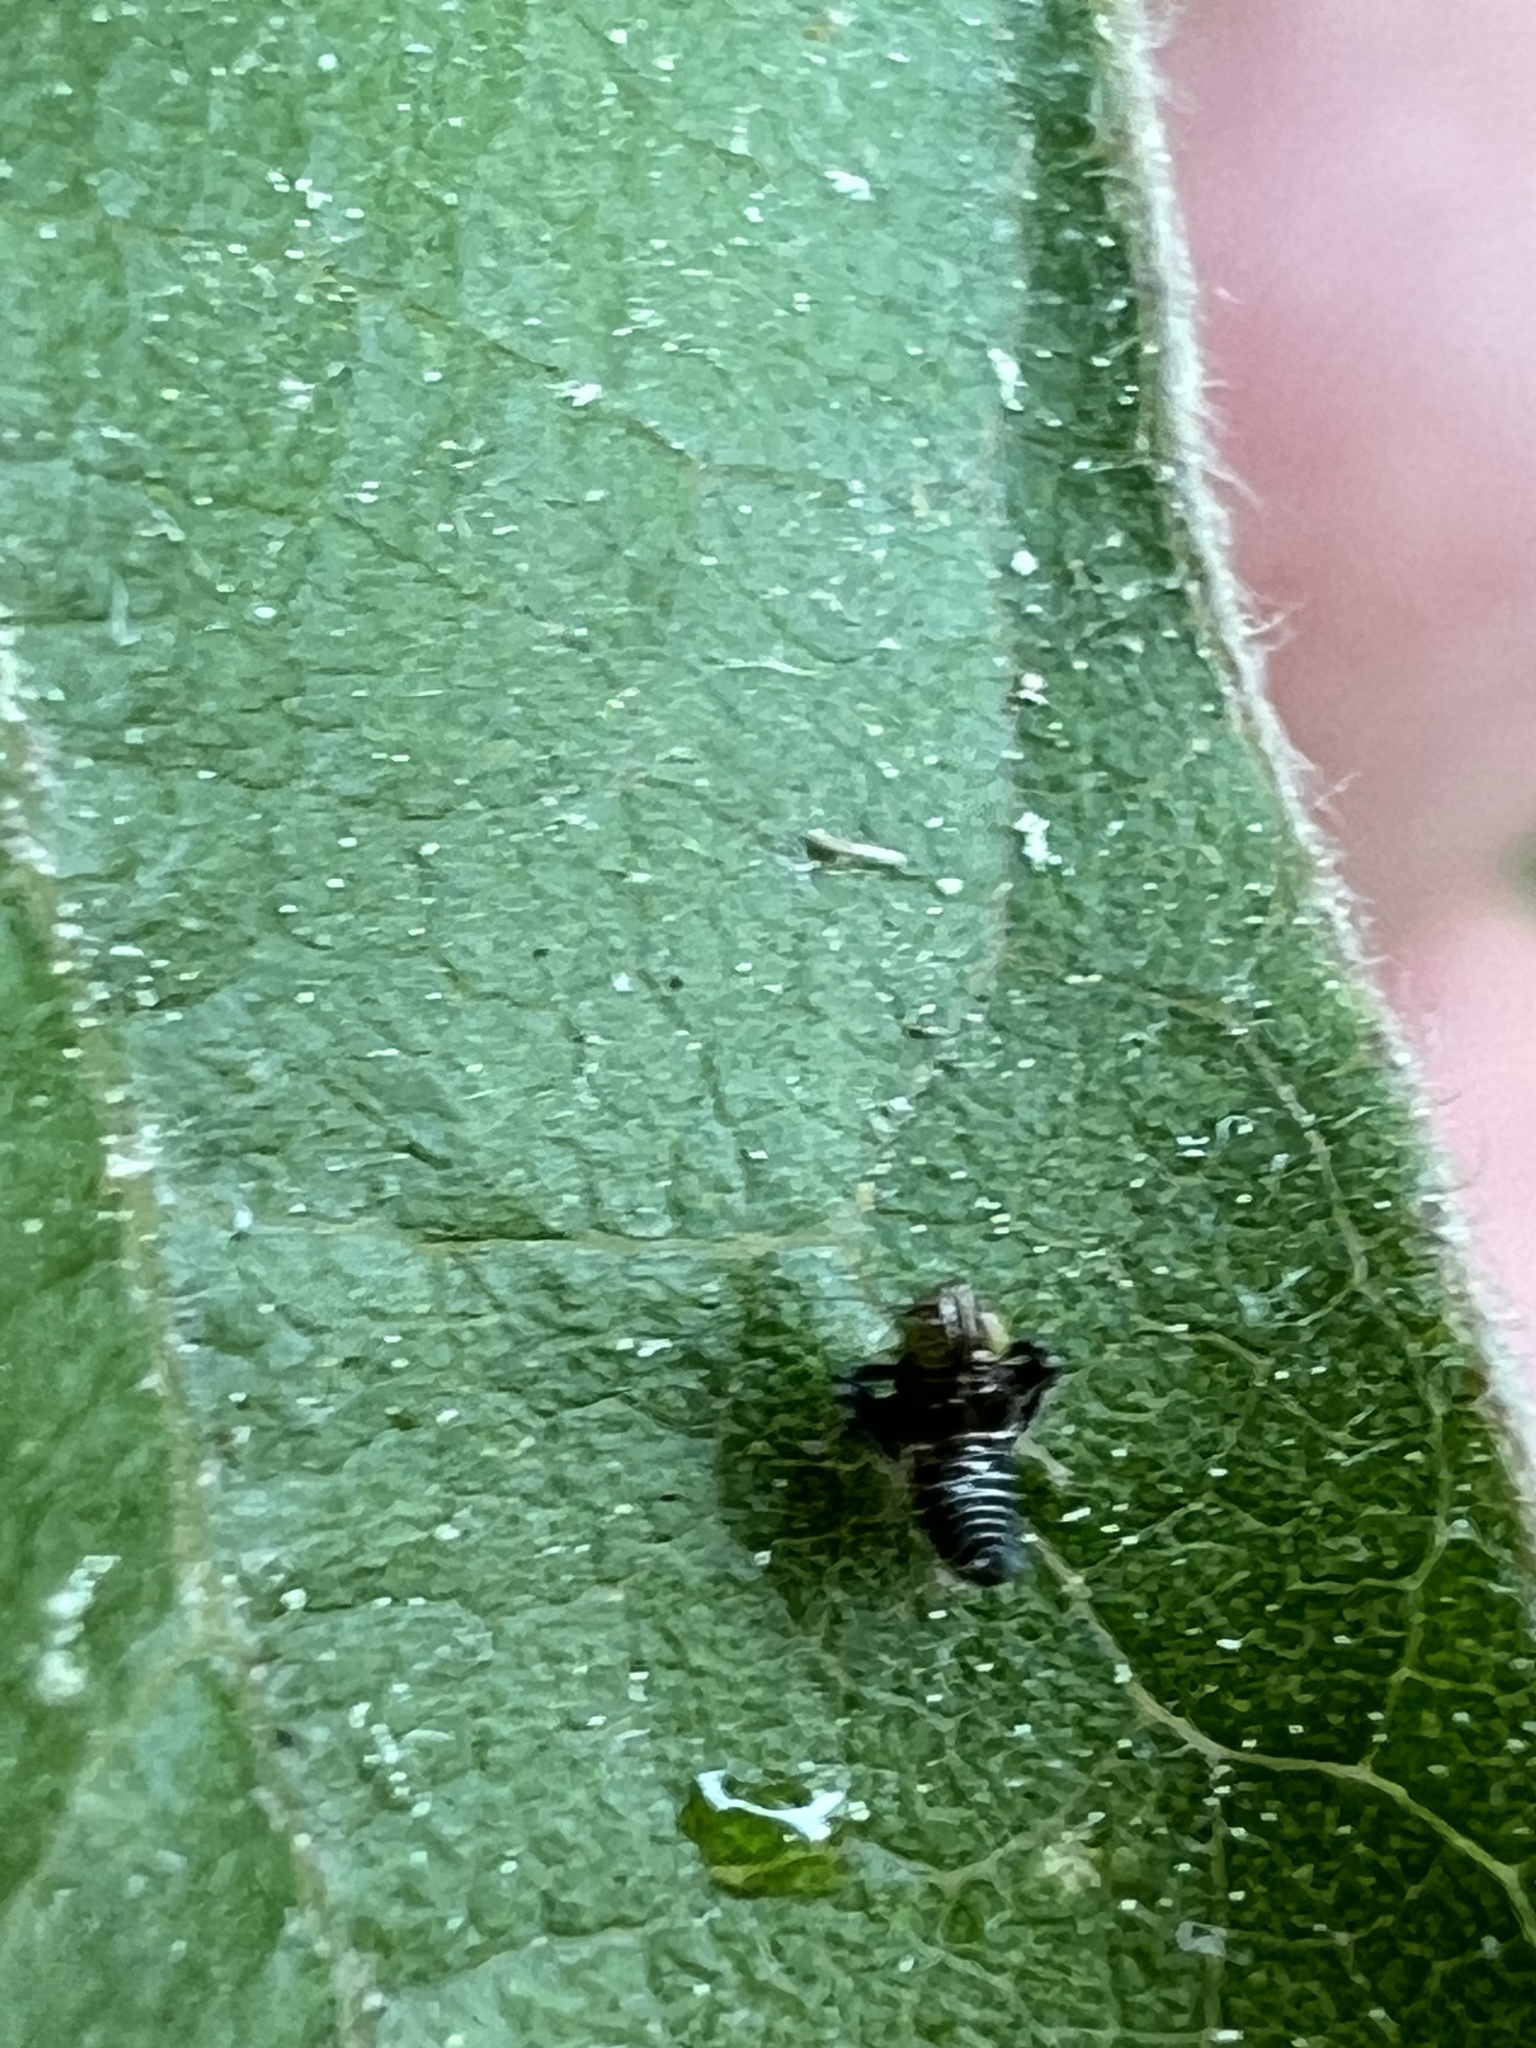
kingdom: Animalia
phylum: Arthropoda
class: Insecta
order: Hemiptera
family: Cicadellidae
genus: Jikradia
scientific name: Jikradia olitoria
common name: Coppery leafhopper
